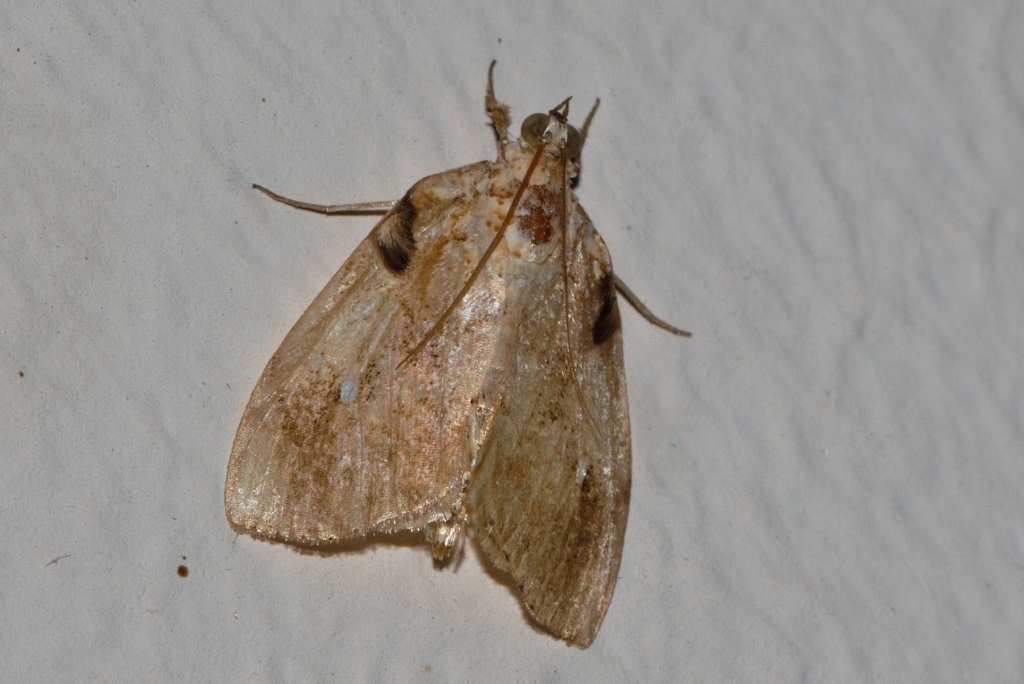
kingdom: Animalia
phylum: Arthropoda
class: Insecta
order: Lepidoptera
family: Crambidae
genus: Crocidolomia
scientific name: Crocidolomia pavonana
